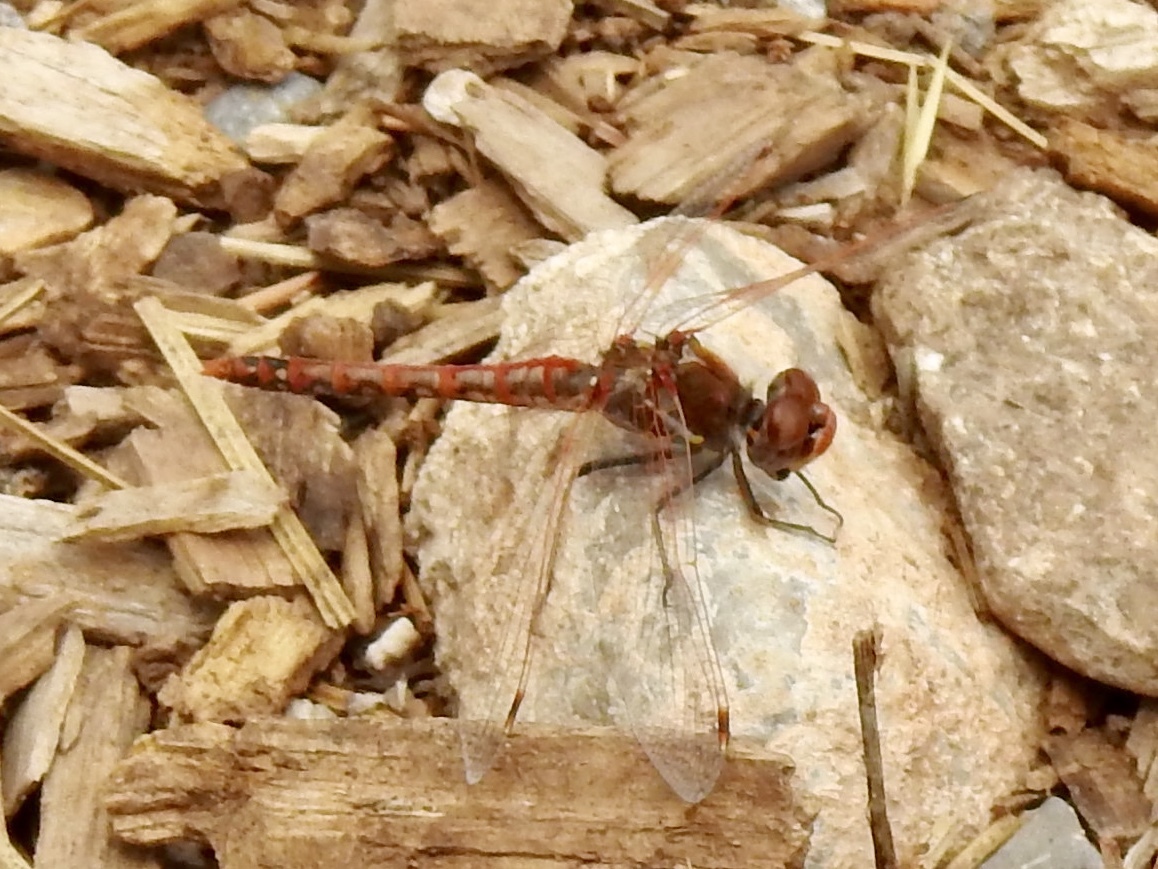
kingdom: Animalia
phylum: Arthropoda
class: Insecta
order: Odonata
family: Libellulidae
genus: Sympetrum
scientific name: Sympetrum corruptum
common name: Variegated meadowhawk
